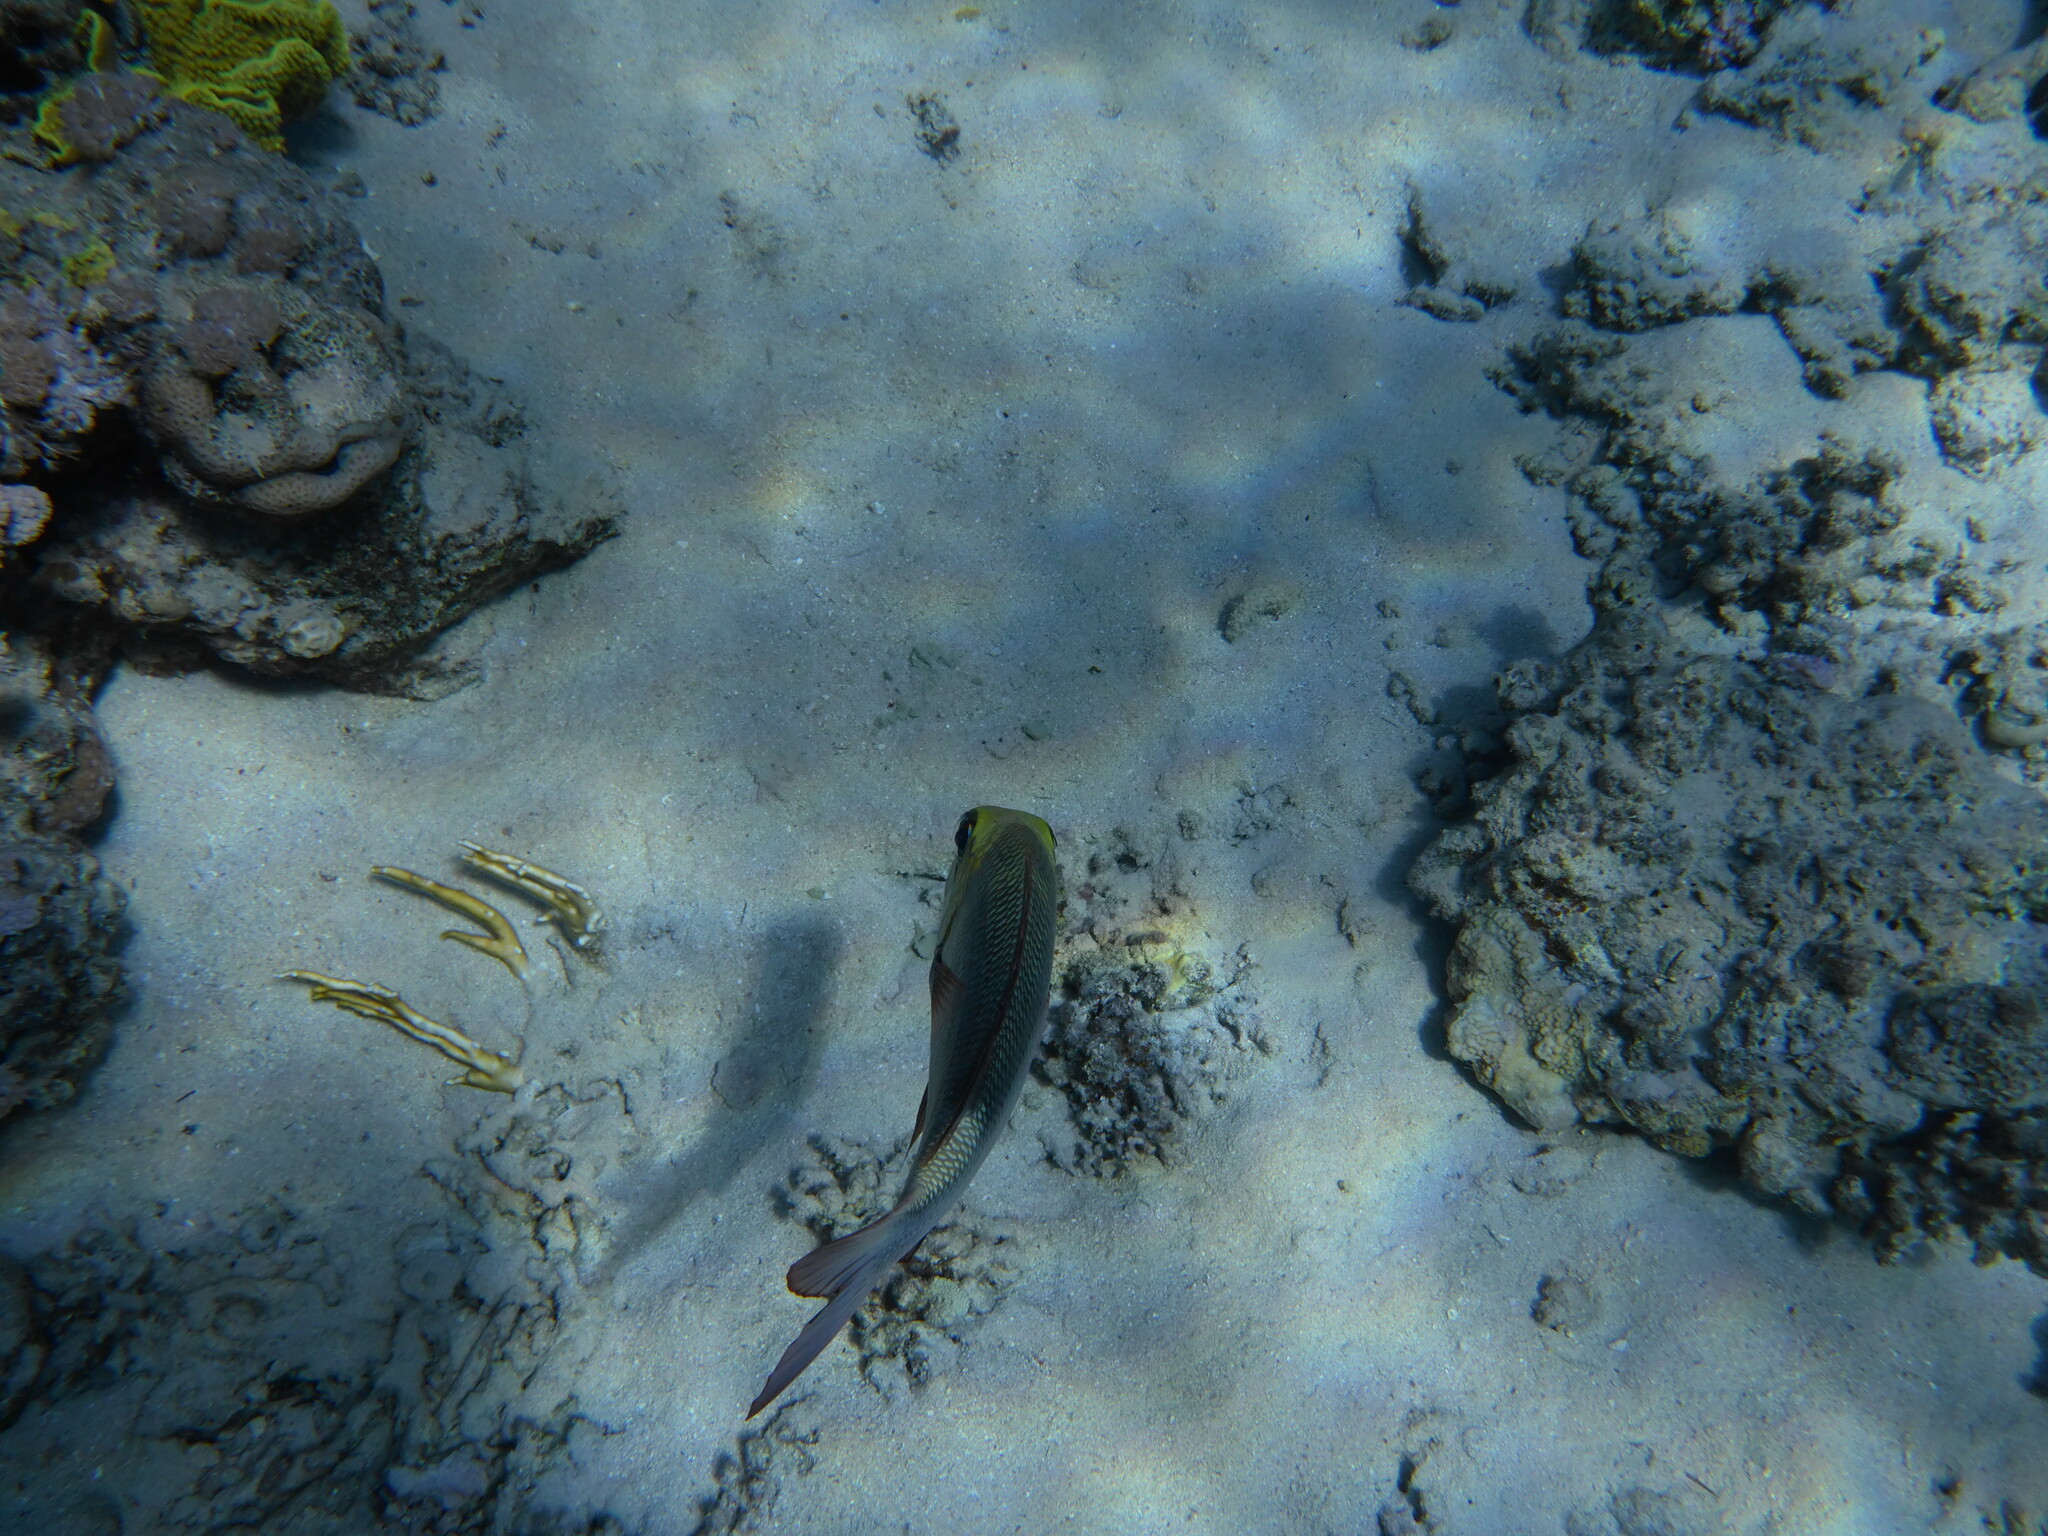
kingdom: Animalia
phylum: Chordata
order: Perciformes
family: Lethrinidae
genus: Monotaxis
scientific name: Monotaxis grandoculis
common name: Bigeye emperor
